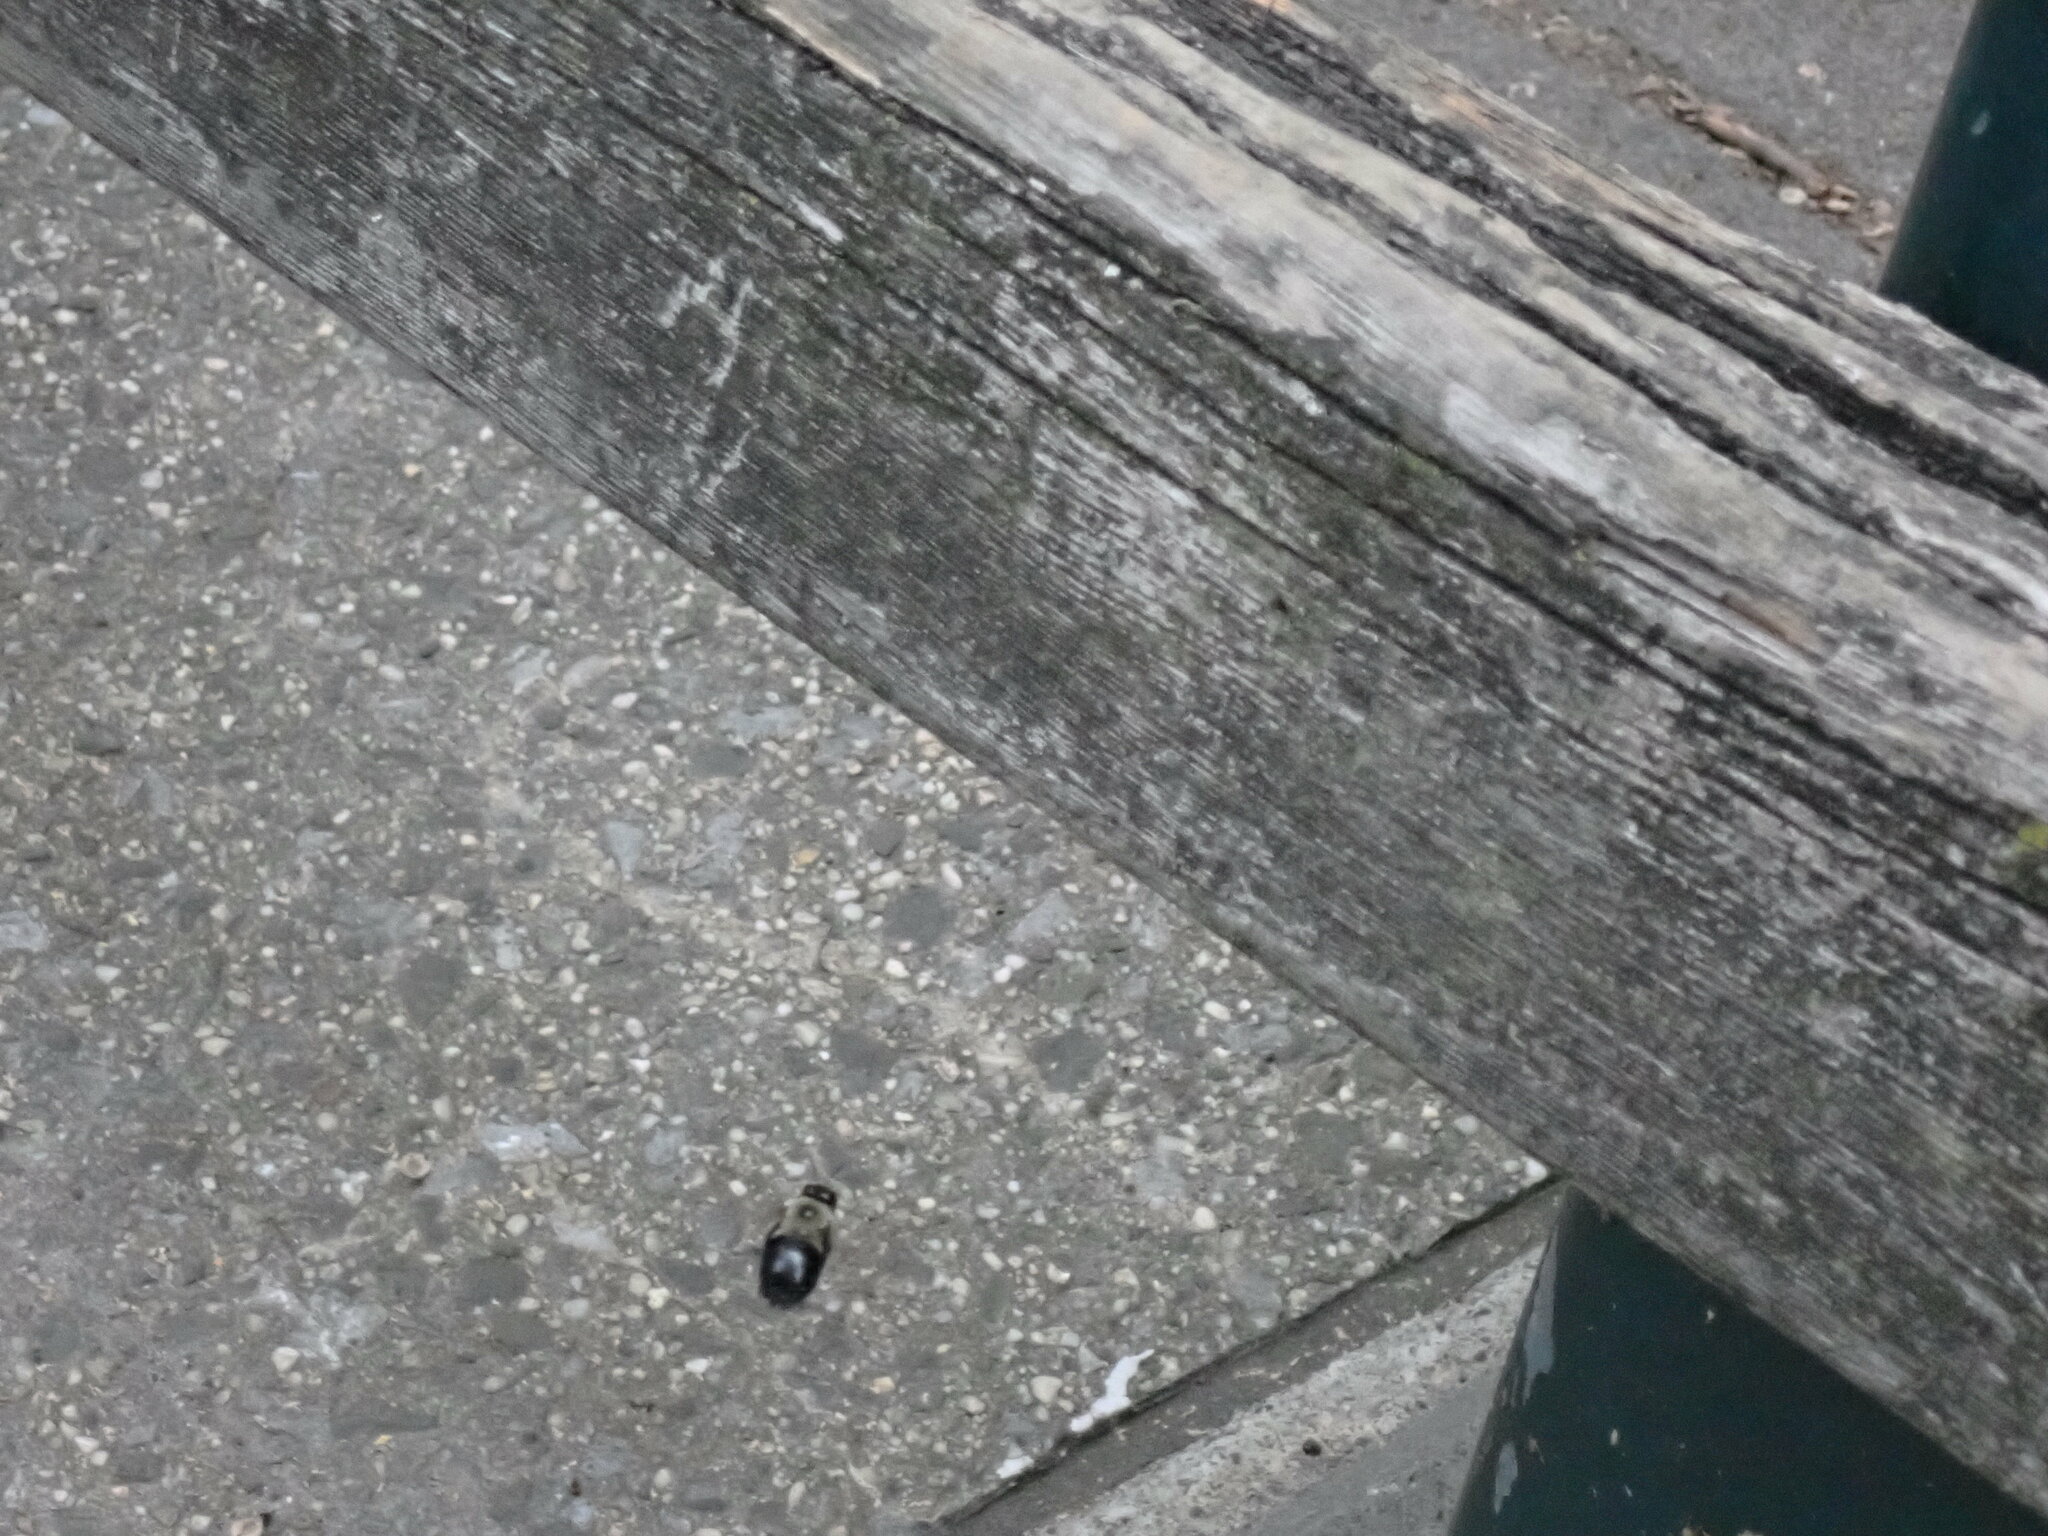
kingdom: Animalia
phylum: Arthropoda
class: Insecta
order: Hymenoptera
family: Apidae
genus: Xylocopa
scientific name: Xylocopa virginica
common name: Carpenter bee
